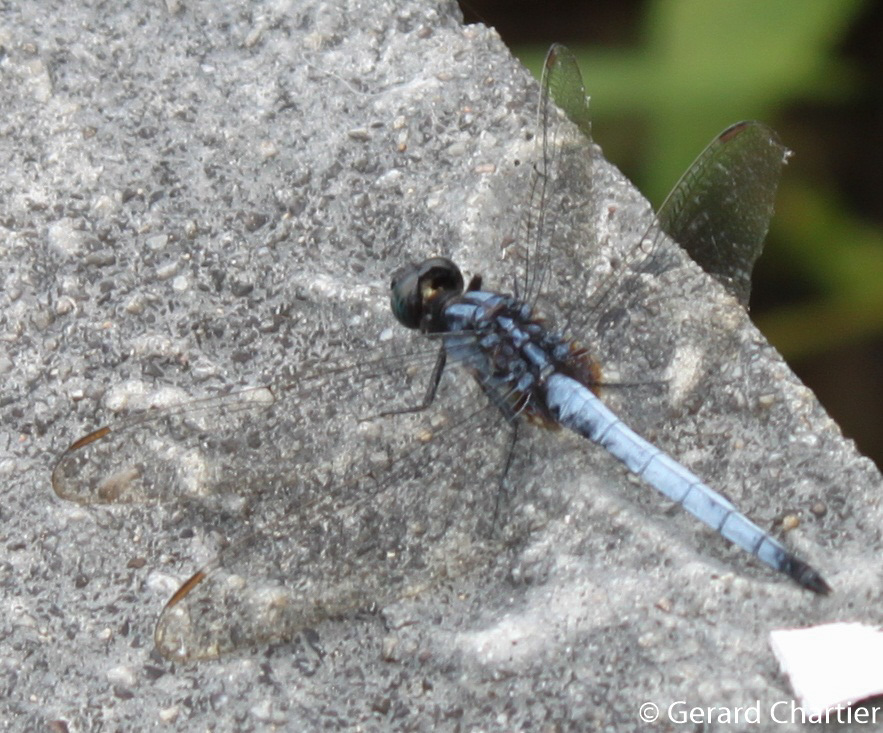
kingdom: Animalia
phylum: Arthropoda
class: Insecta
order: Odonata
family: Libellulidae
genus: Orthetrum
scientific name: Orthetrum glaucum
